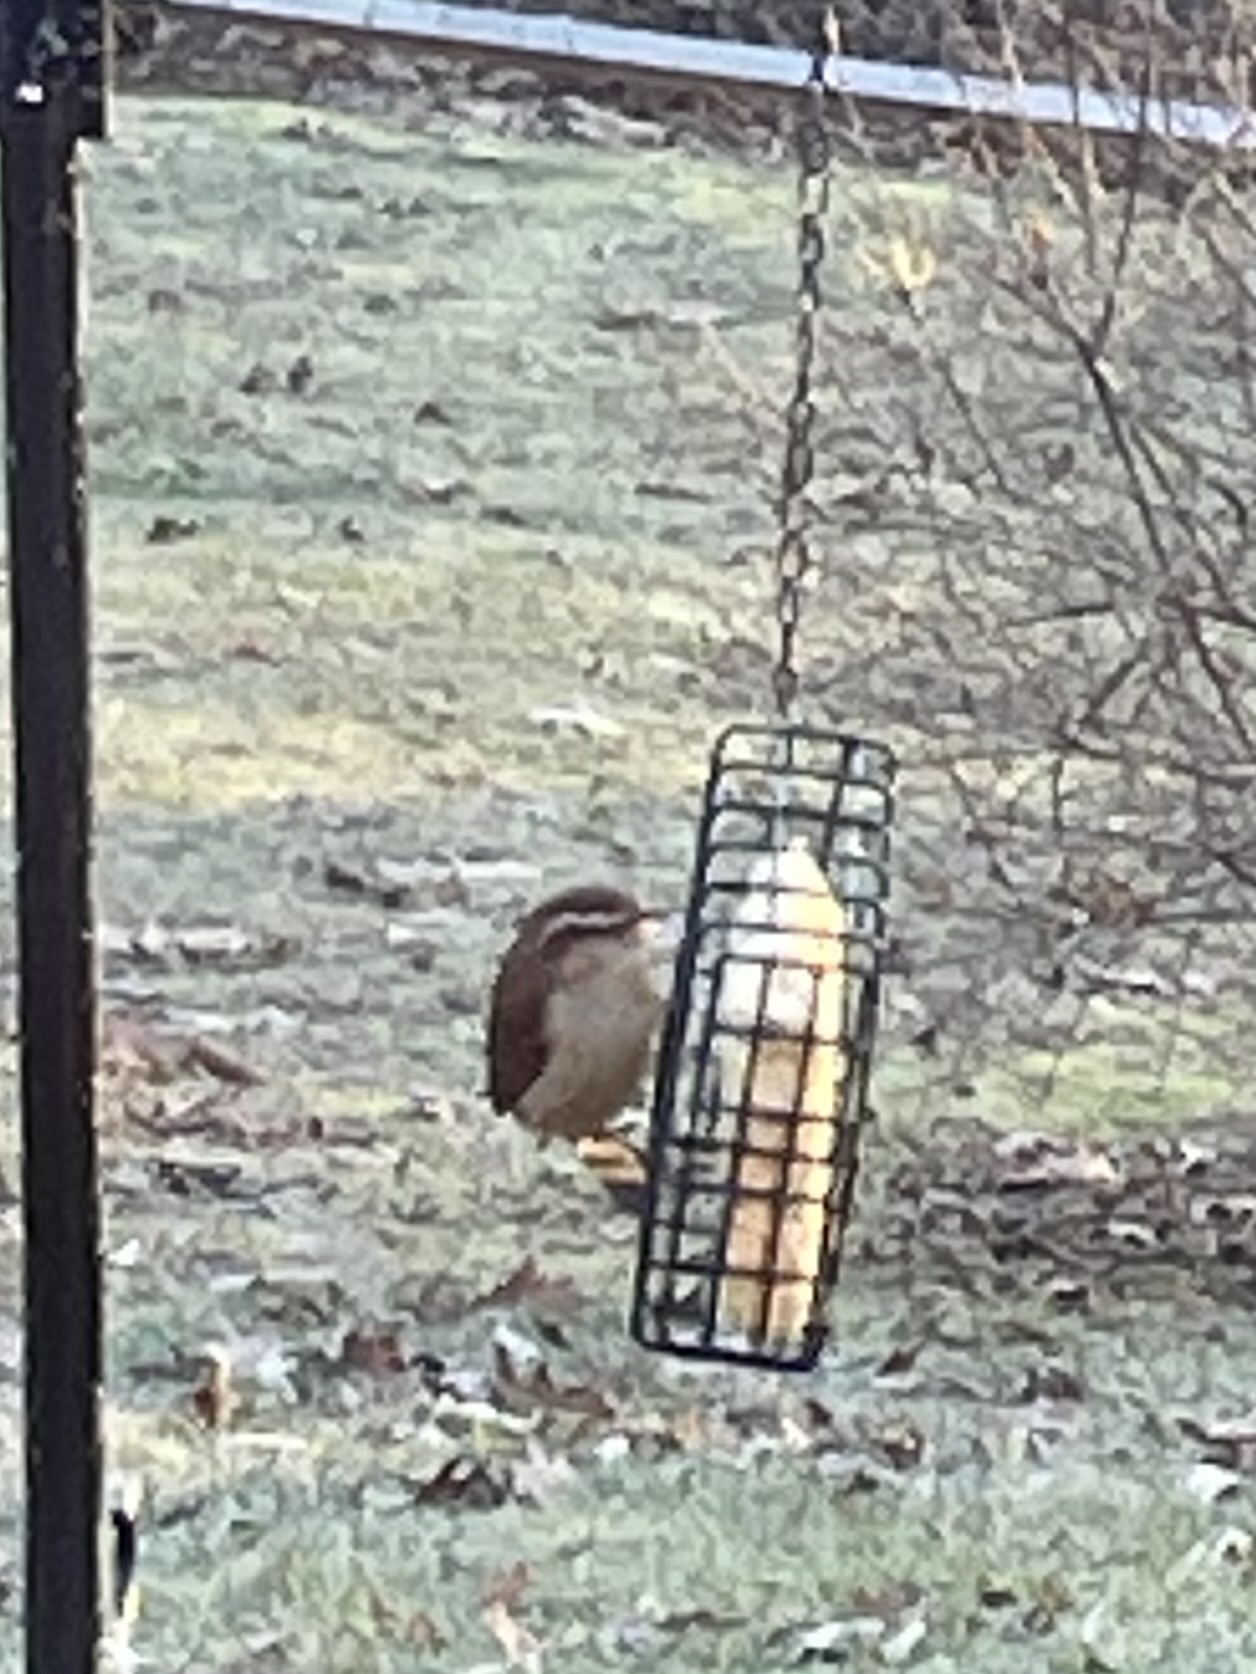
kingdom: Animalia
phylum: Chordata
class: Aves
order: Passeriformes
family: Troglodytidae
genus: Thryothorus
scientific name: Thryothorus ludovicianus
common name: Carolina wren
